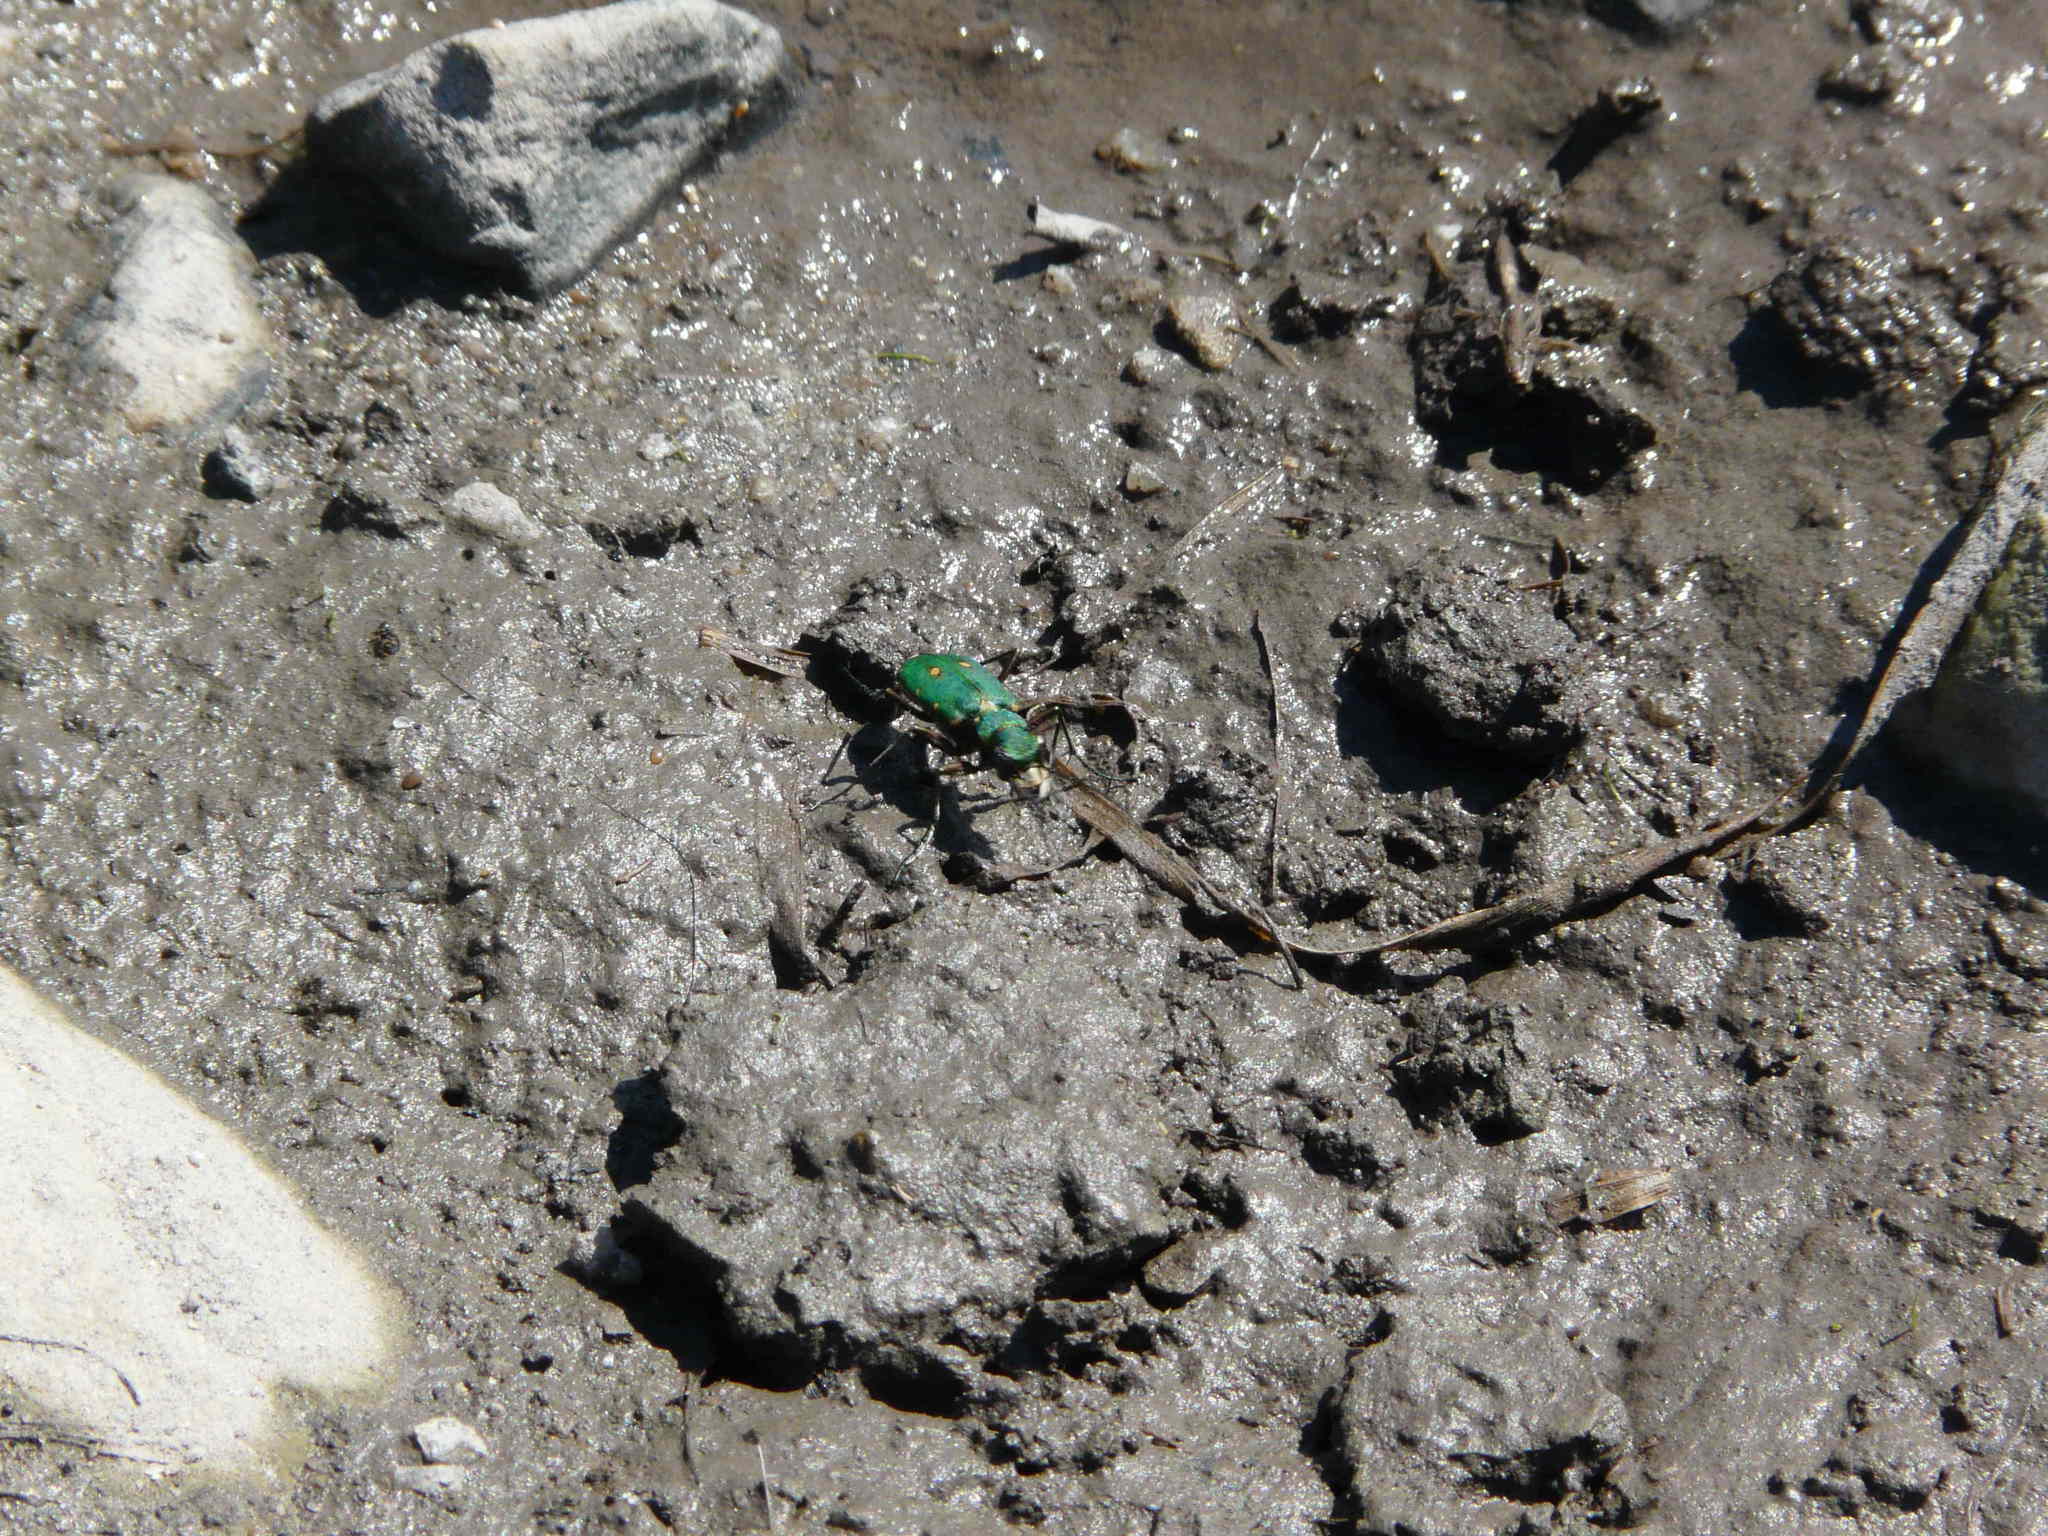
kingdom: Animalia
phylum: Arthropoda
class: Insecta
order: Coleoptera
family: Carabidae
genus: Cicindela
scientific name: Cicindela campestris
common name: Common tiger beetle
